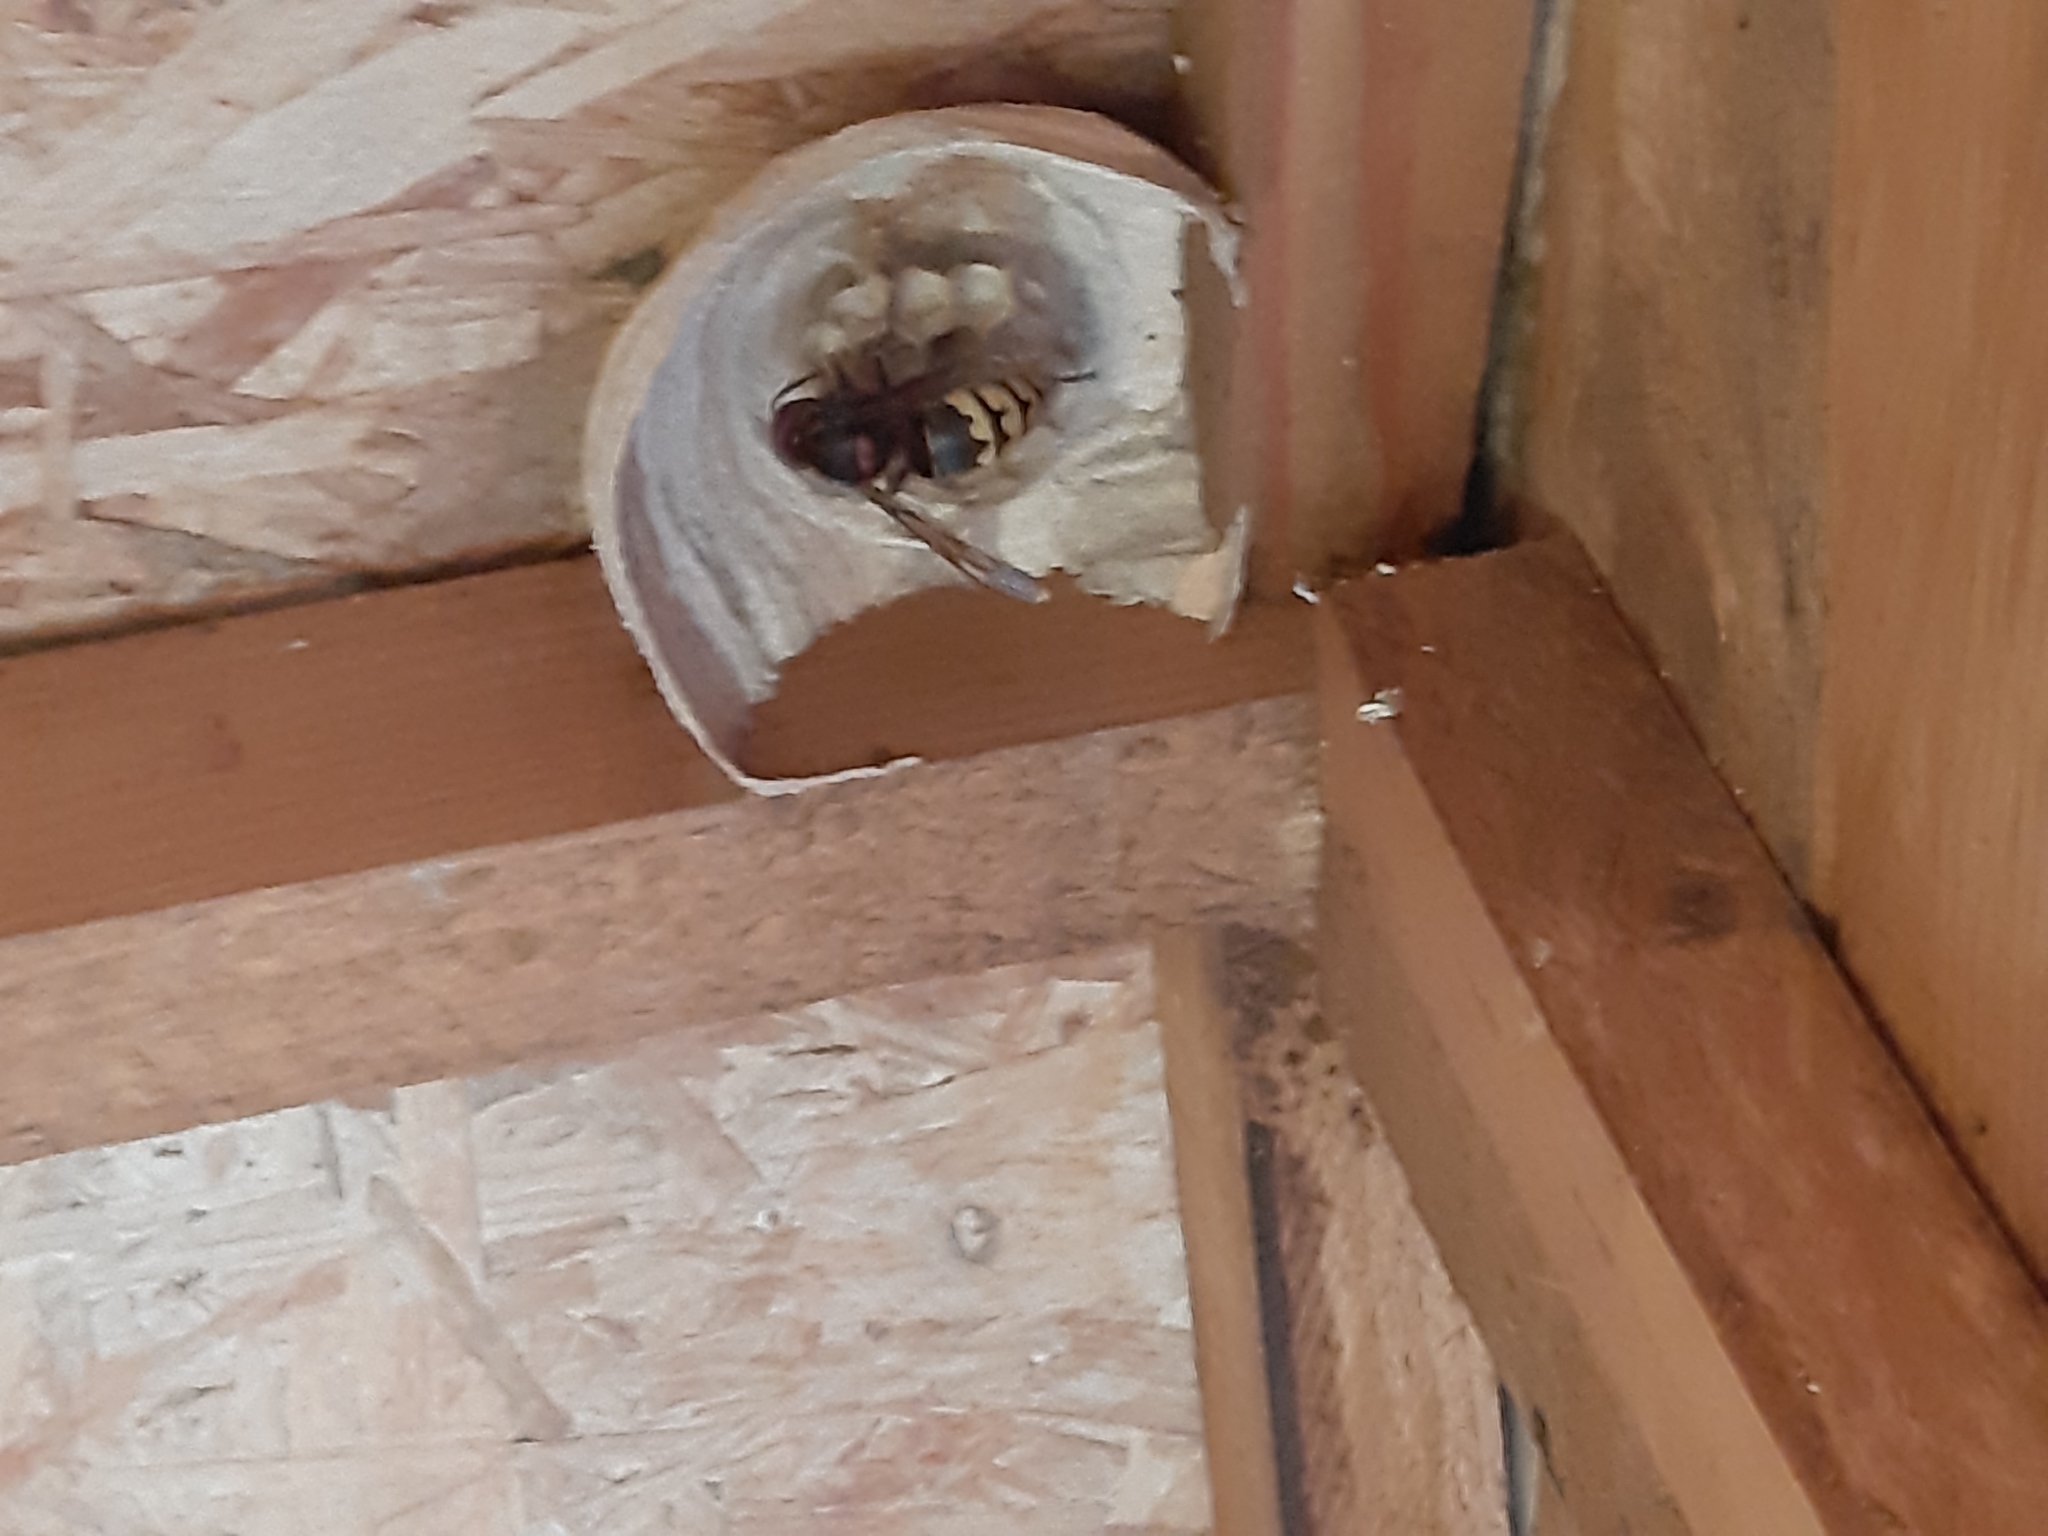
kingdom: Animalia
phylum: Arthropoda
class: Insecta
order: Hymenoptera
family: Vespidae
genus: Vespa
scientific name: Vespa crabro
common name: Hornet
